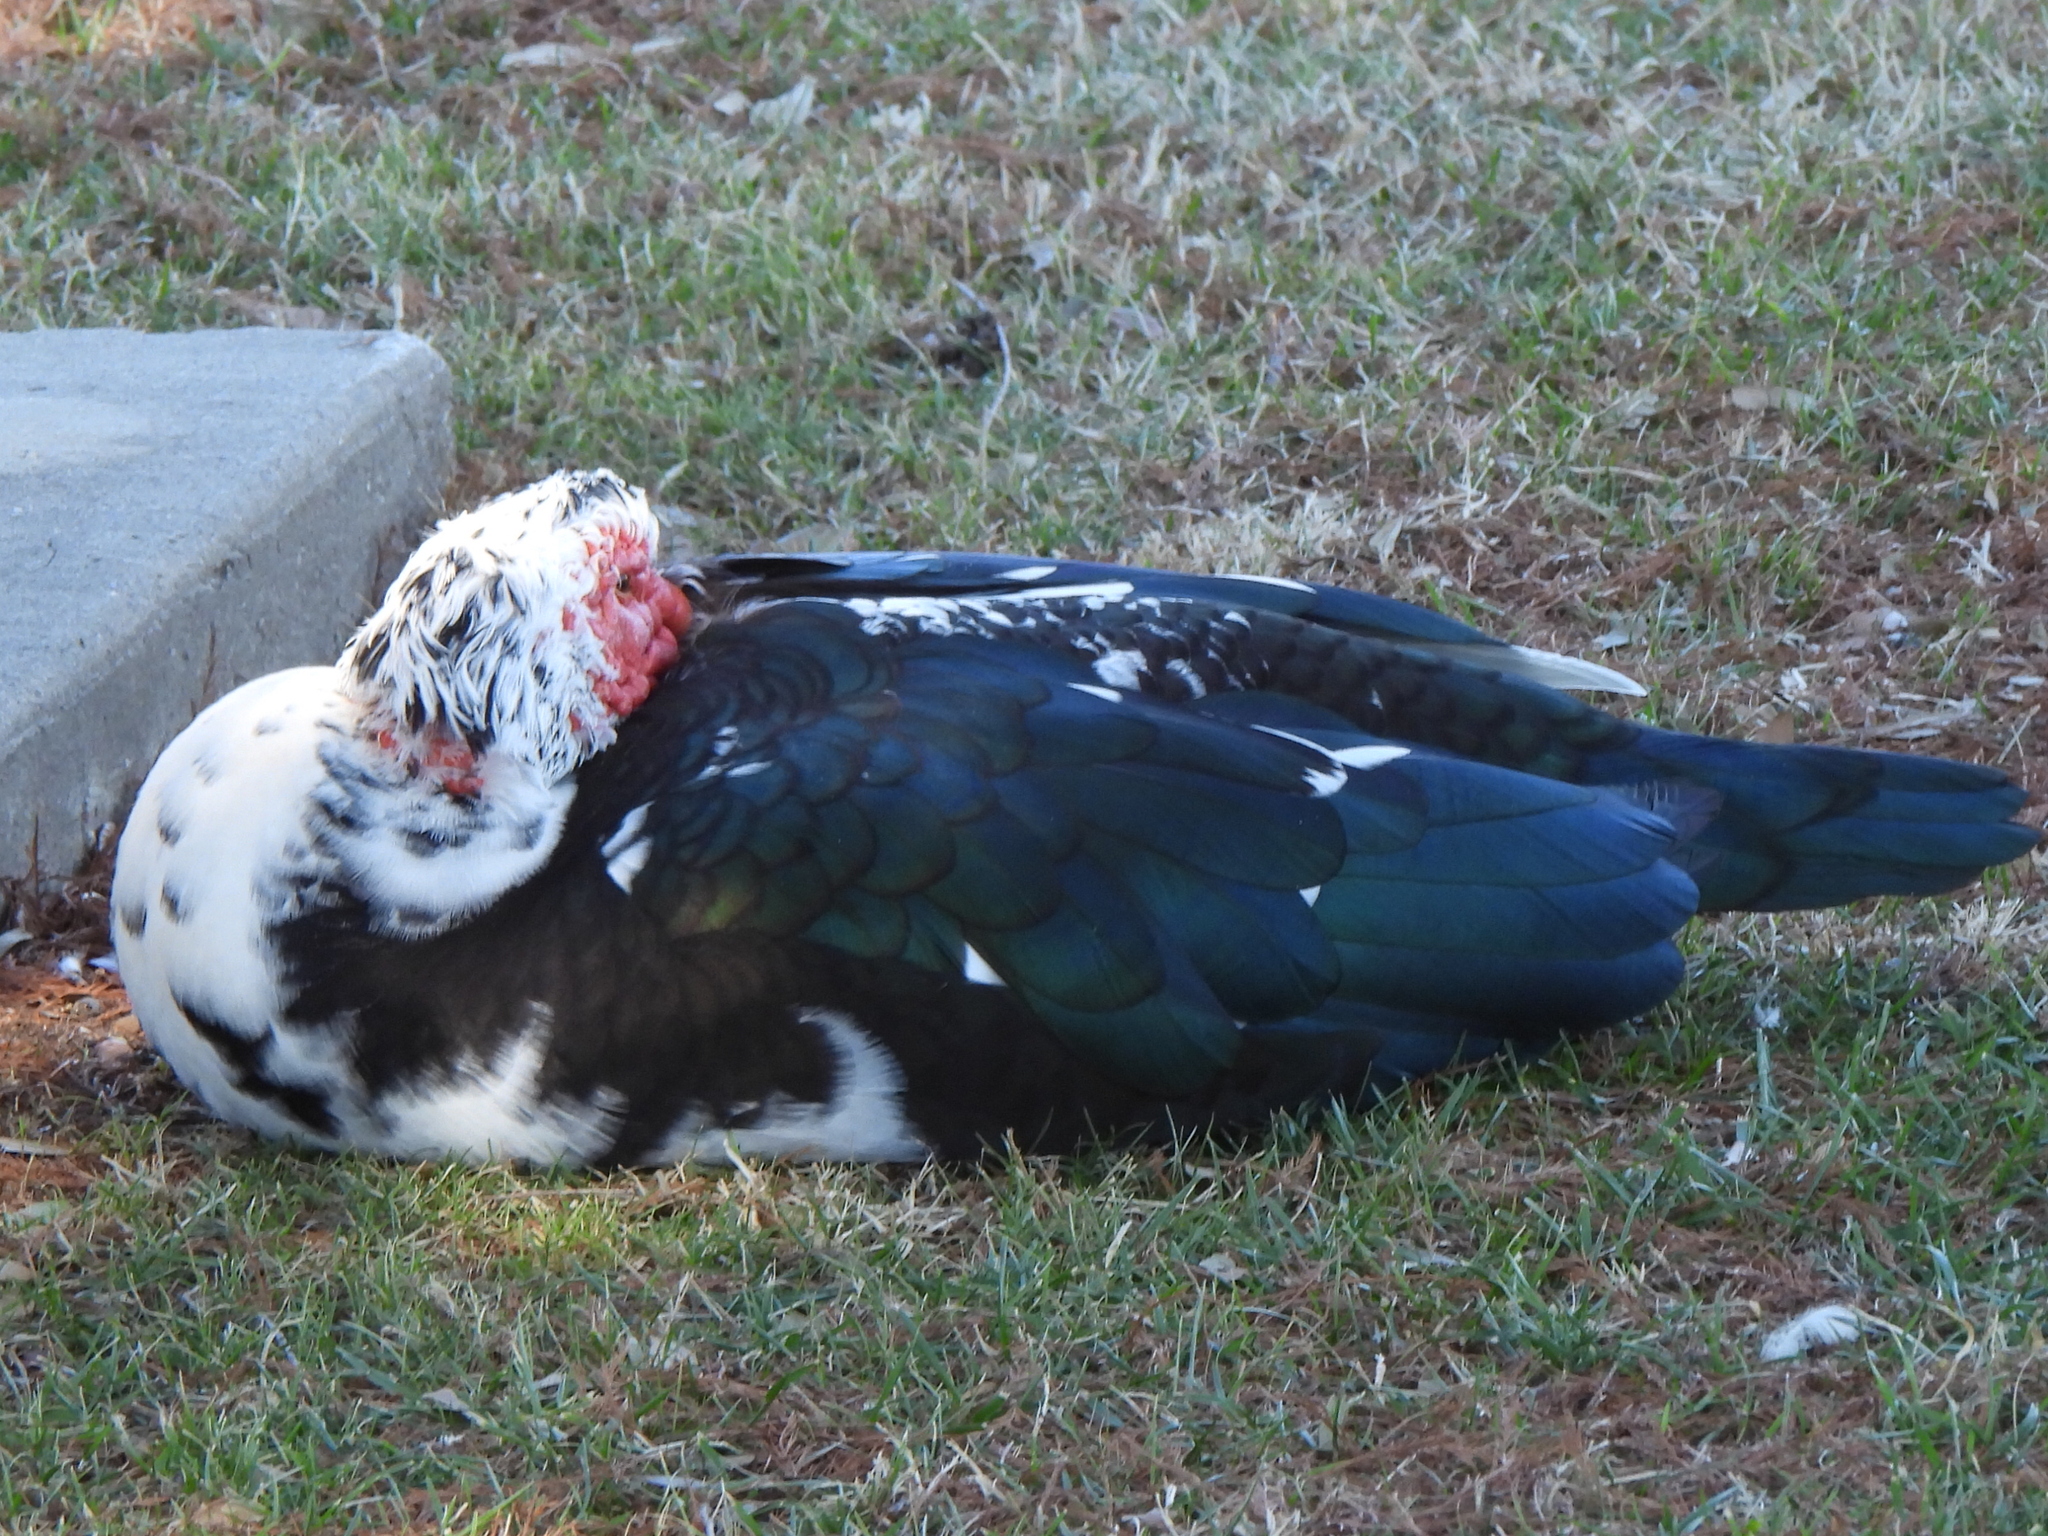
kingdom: Animalia
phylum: Chordata
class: Aves
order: Anseriformes
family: Anatidae
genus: Cairina
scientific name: Cairina moschata
